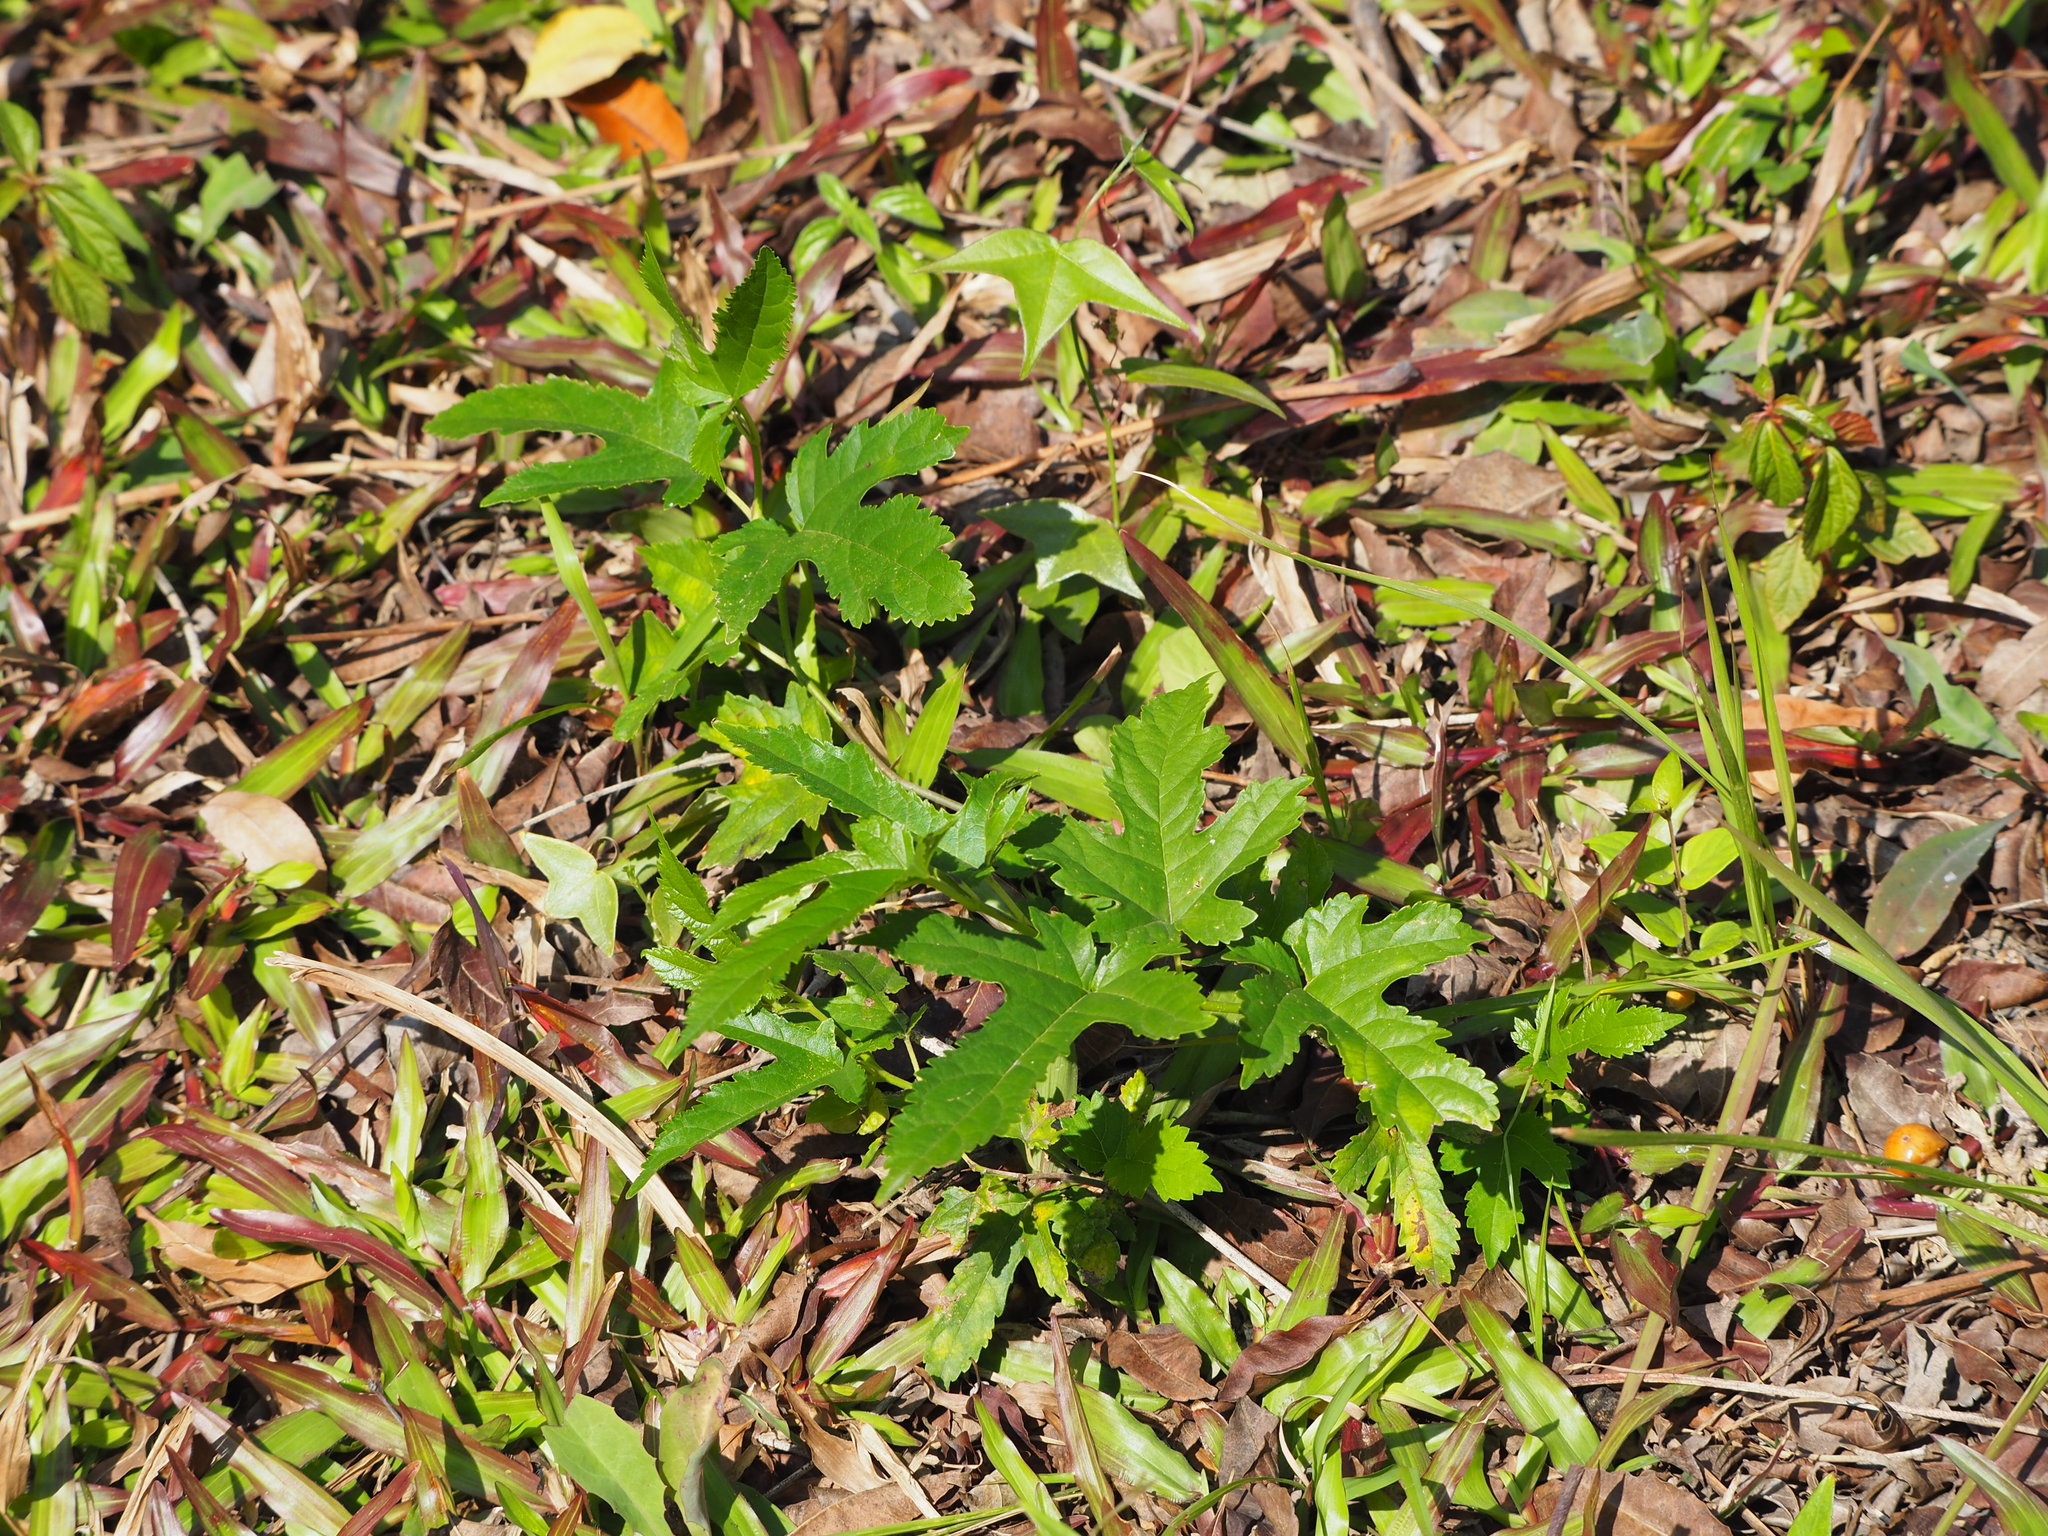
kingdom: Plantae
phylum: Tracheophyta
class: Magnoliopsida
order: Rosales
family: Moraceae
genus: Morus
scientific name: Morus indica
